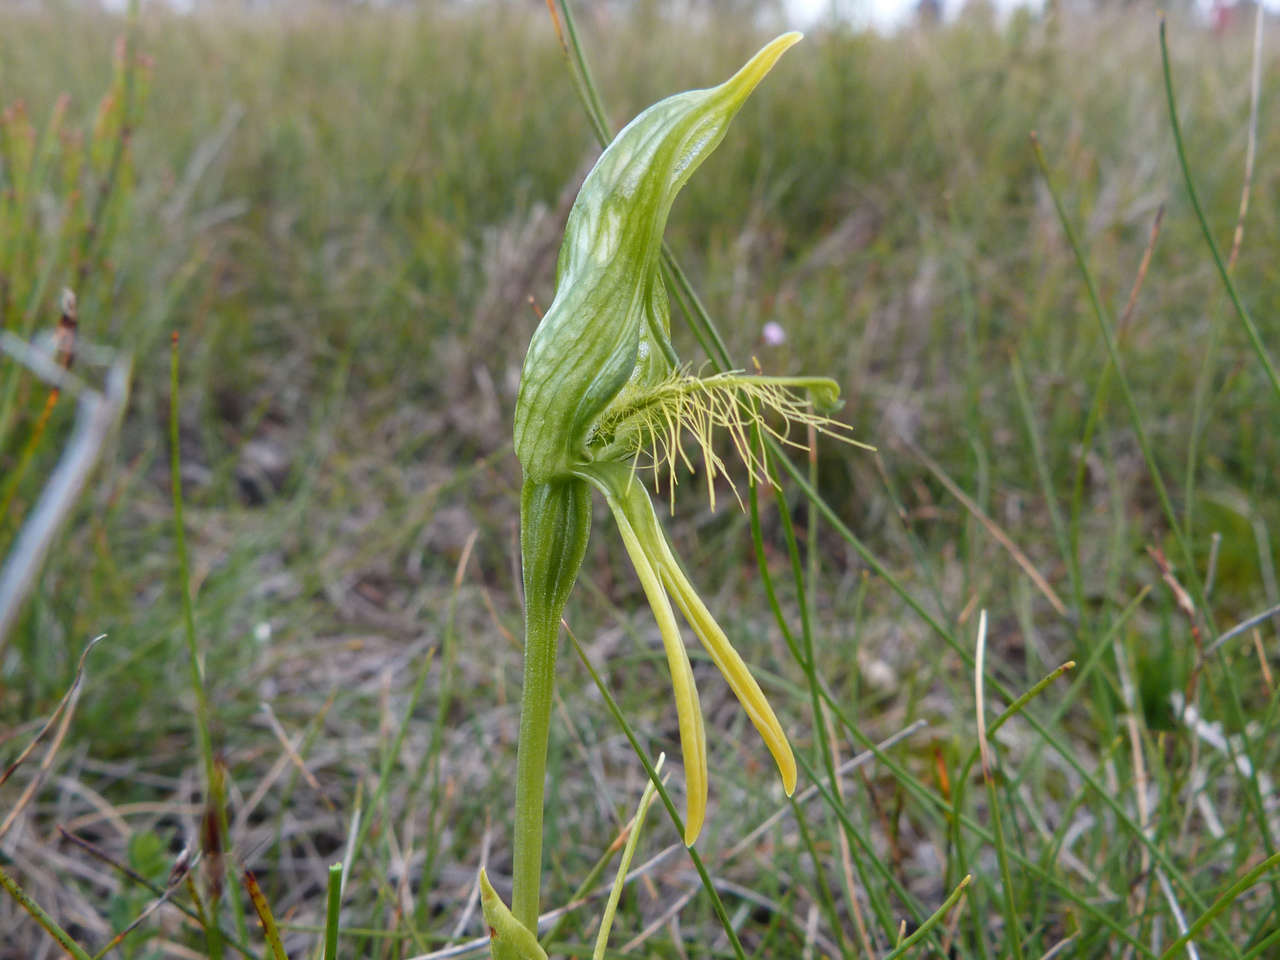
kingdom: Plantae
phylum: Tracheophyta
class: Liliopsida
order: Asparagales
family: Orchidaceae
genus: Pterostylis
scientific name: Pterostylis plumosa
